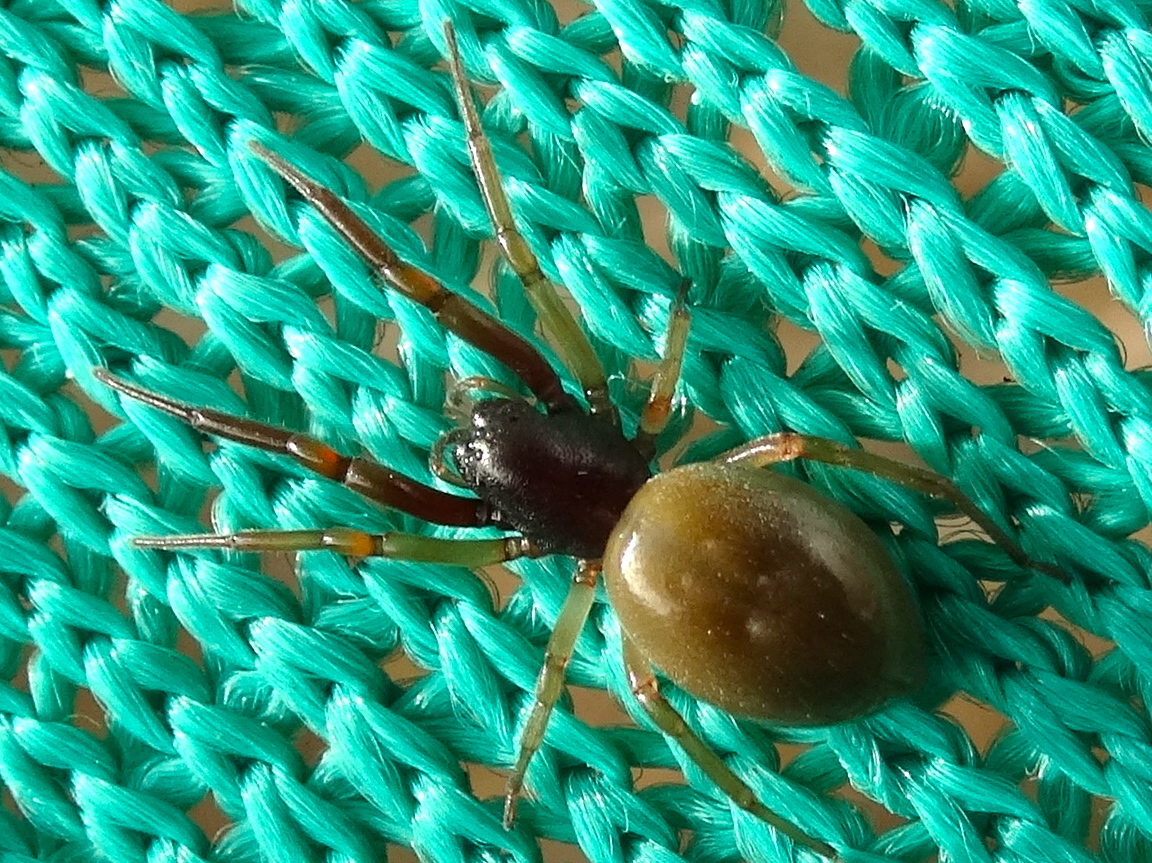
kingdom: Animalia
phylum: Arthropoda
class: Arachnida
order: Araneae
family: Trachelidae
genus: Trachelas
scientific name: Trachelas
